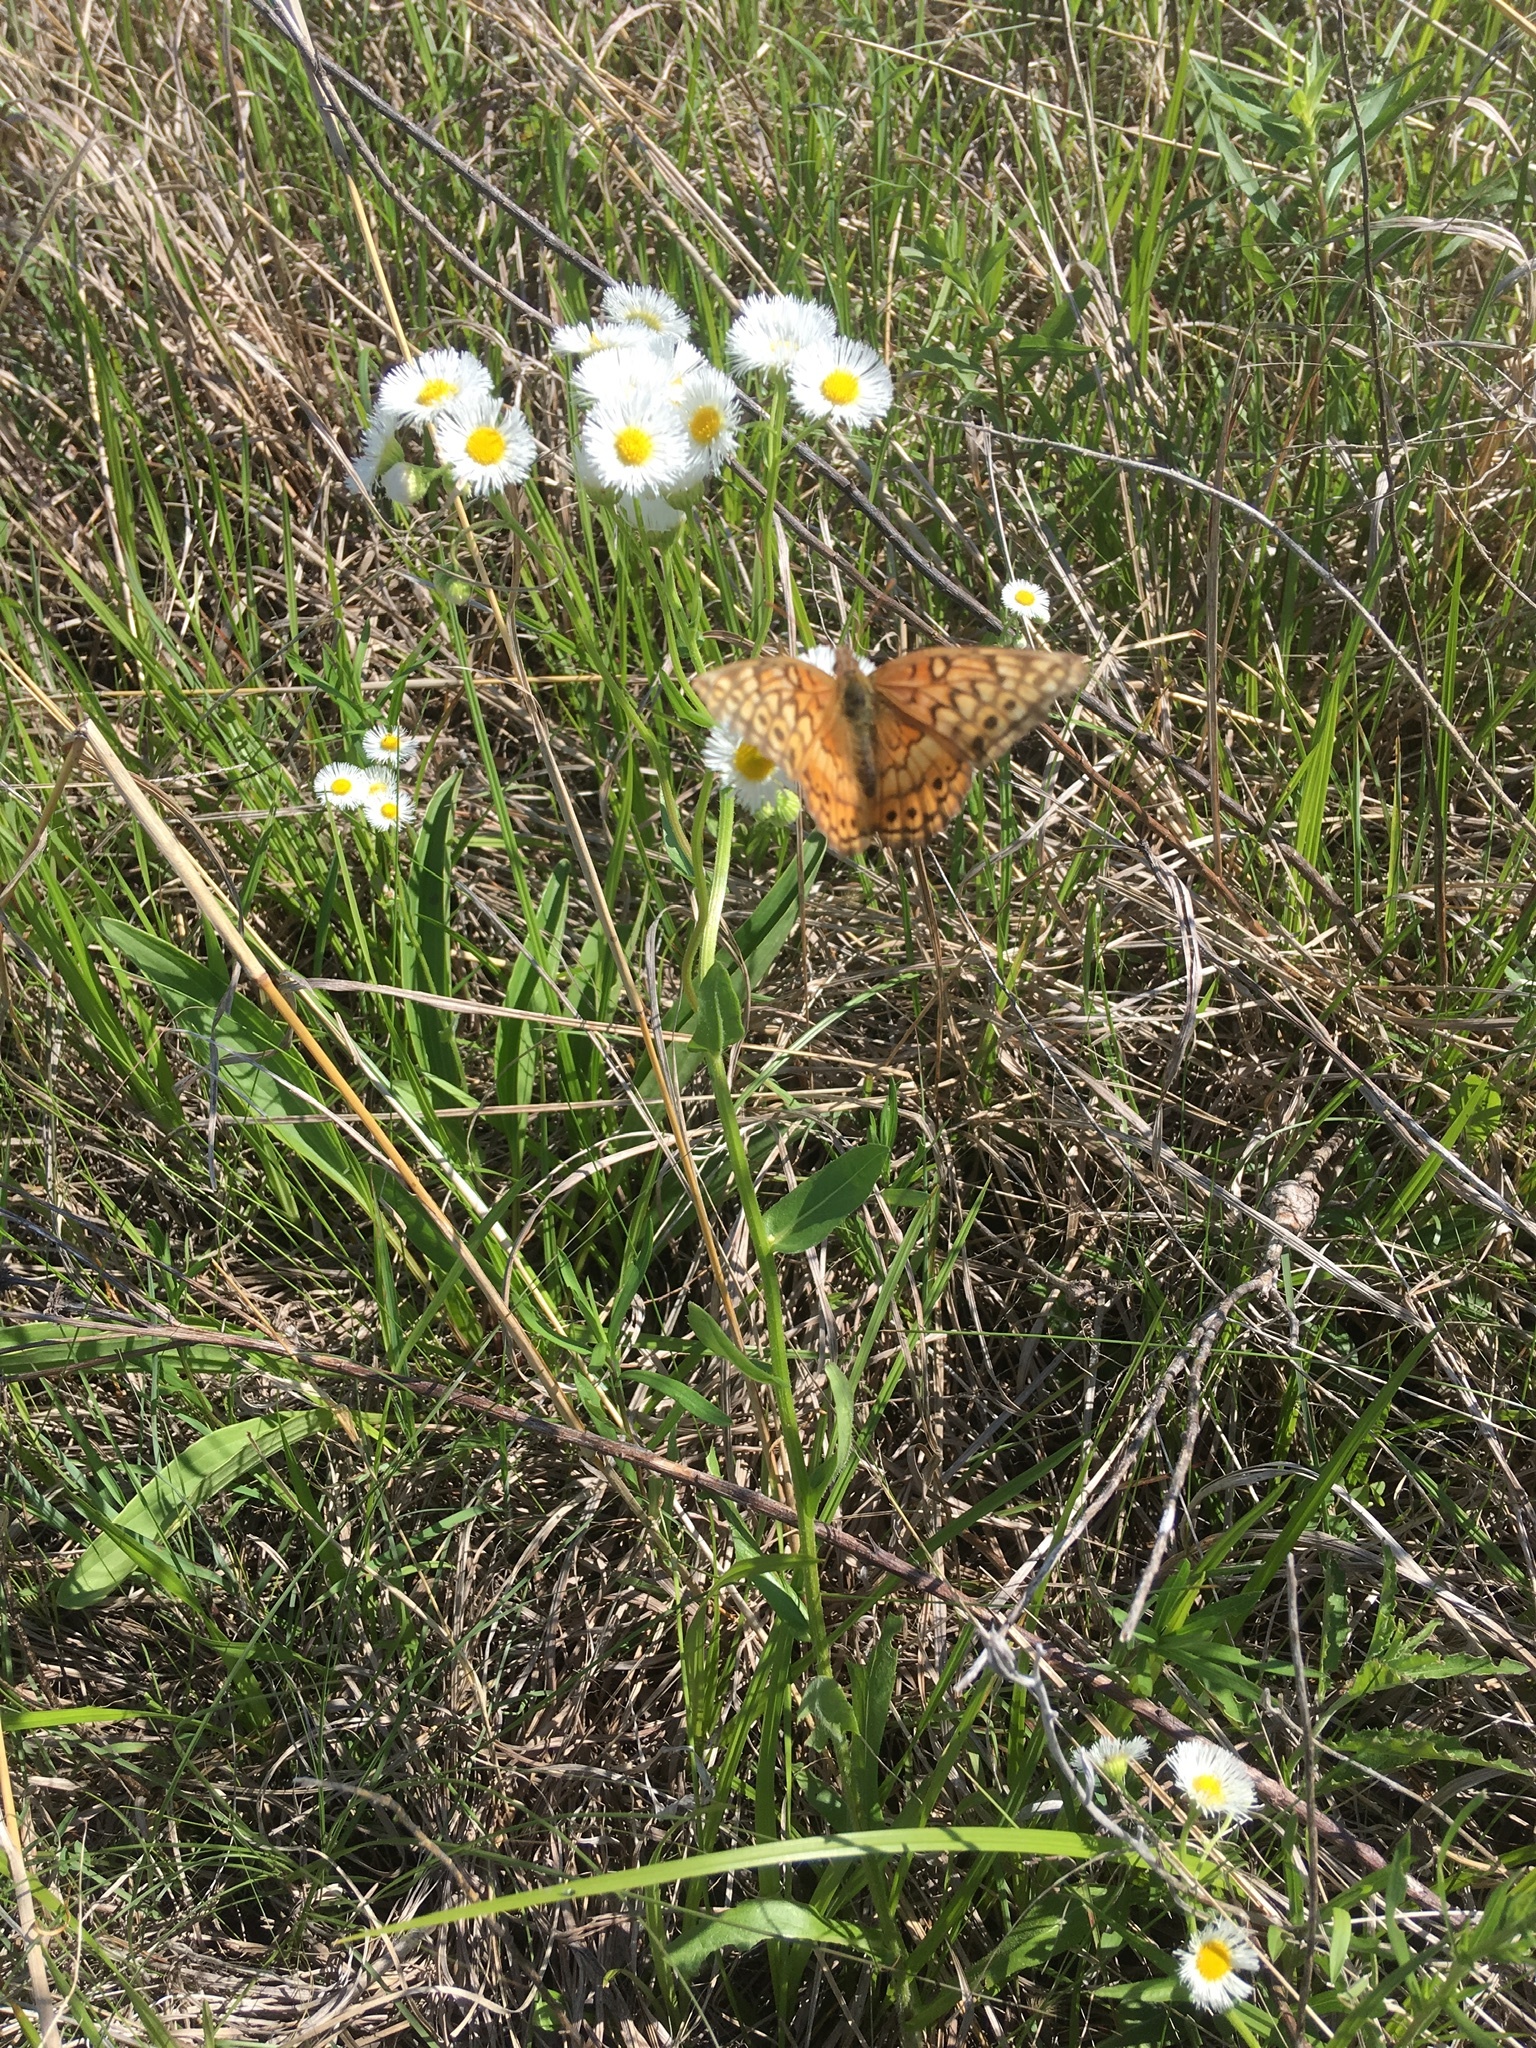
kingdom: Animalia
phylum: Arthropoda
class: Insecta
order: Lepidoptera
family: Nymphalidae
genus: Euptoieta
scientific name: Euptoieta claudia
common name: Variegated fritillary
